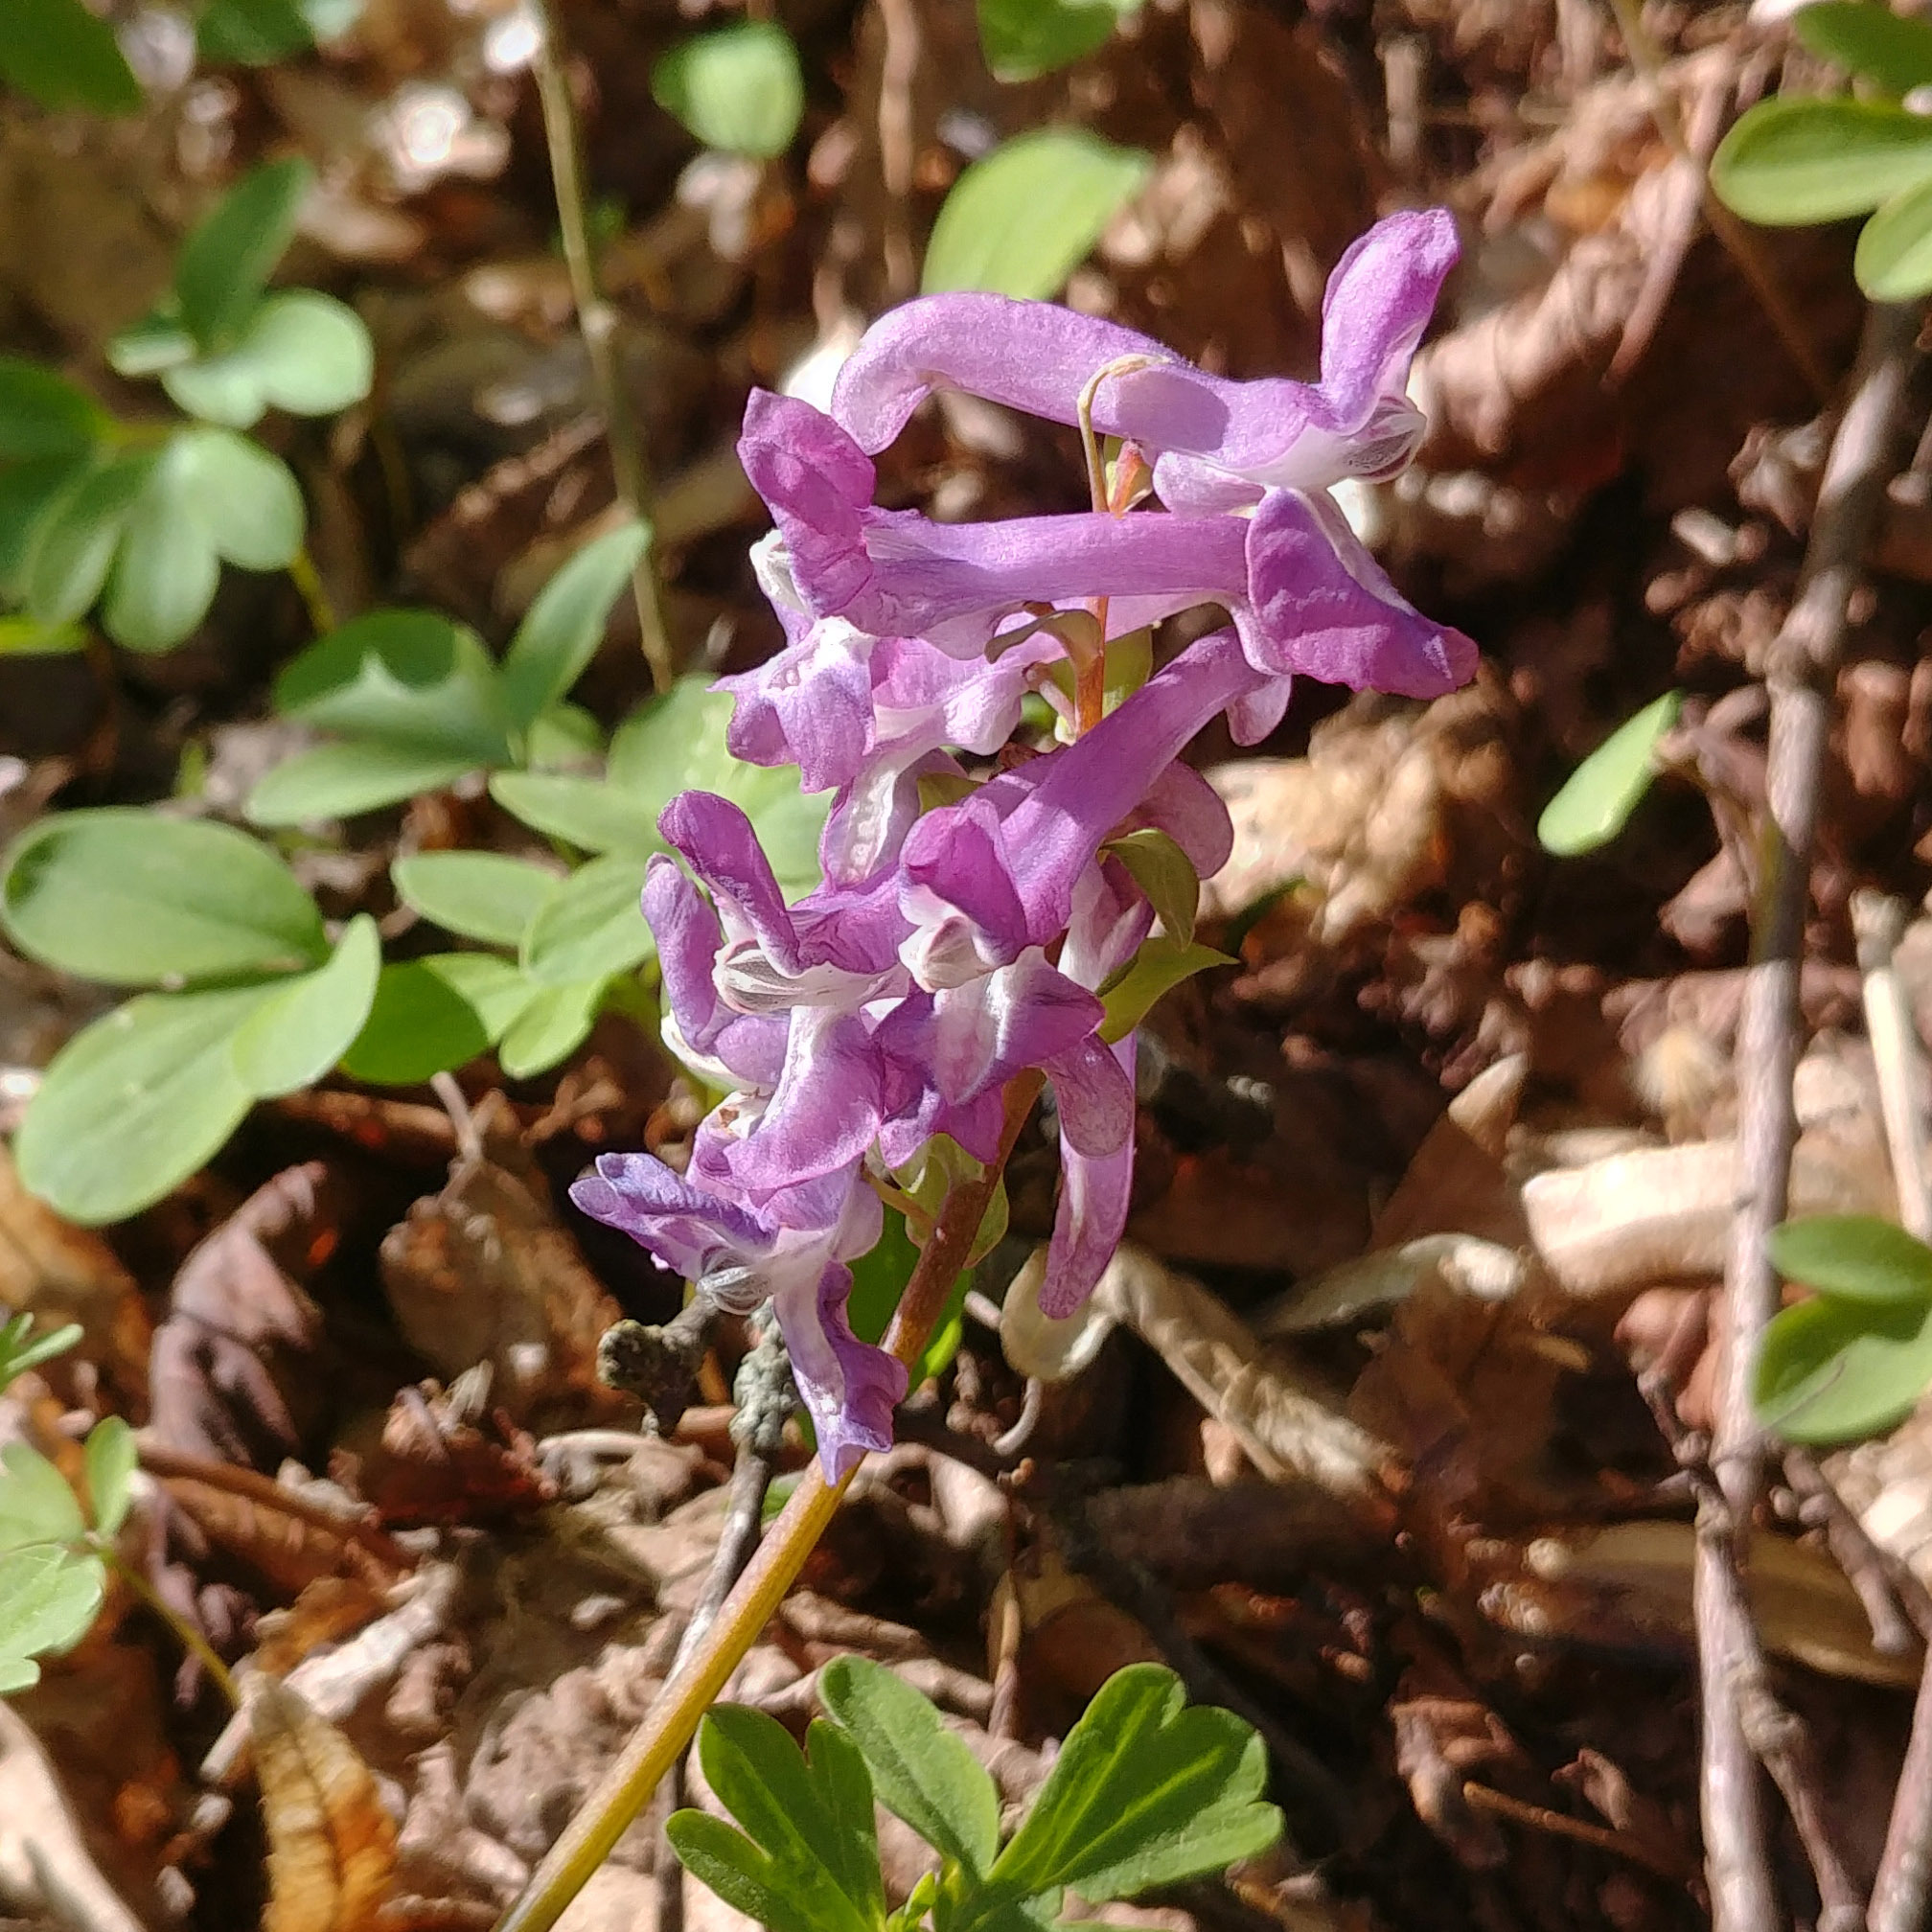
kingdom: Plantae
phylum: Tracheophyta
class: Magnoliopsida
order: Ranunculales
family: Papaveraceae
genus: Corydalis
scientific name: Corydalis cava
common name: Hollowroot
